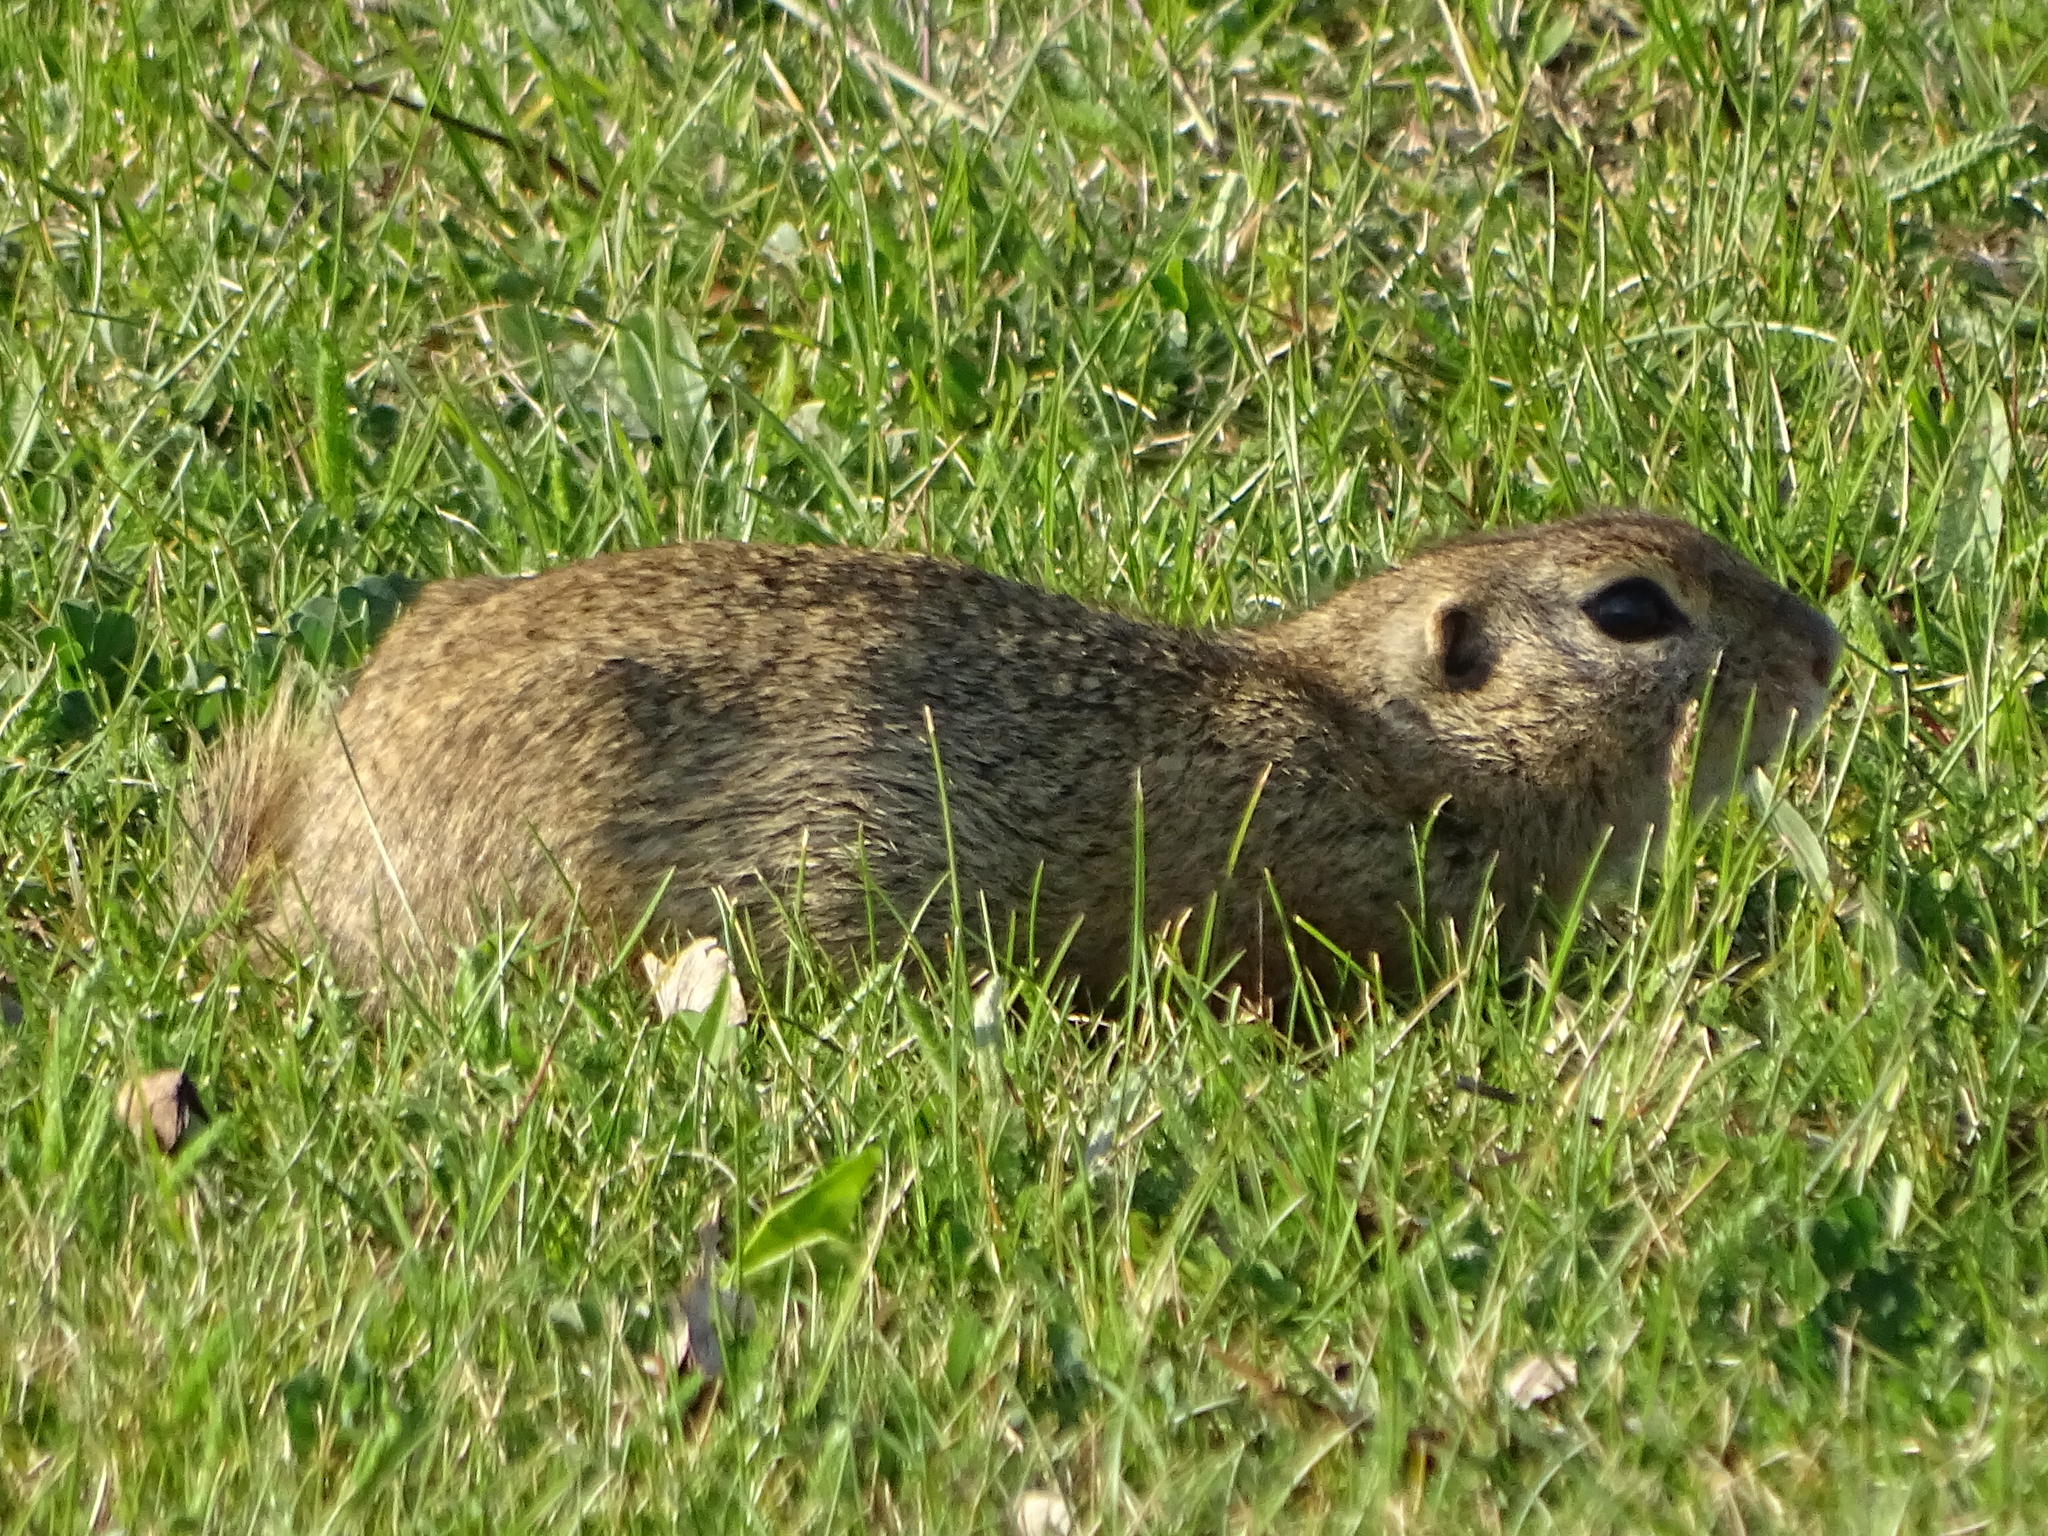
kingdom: Animalia
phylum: Chordata
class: Mammalia
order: Rodentia
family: Sciuridae
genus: Spermophilus
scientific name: Spermophilus citellus
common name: European ground squirrel
